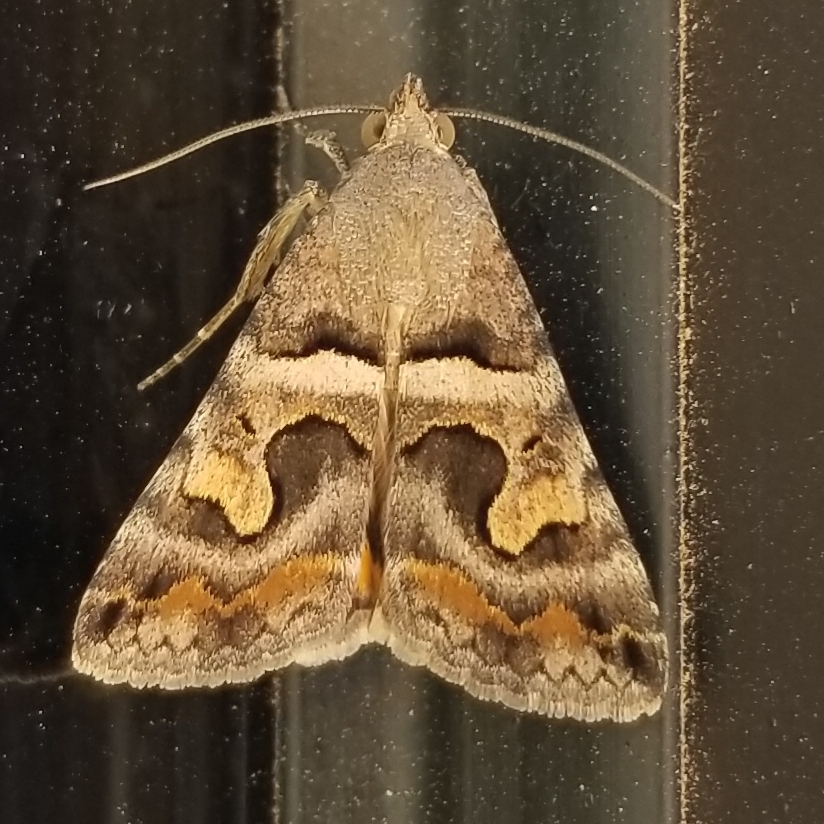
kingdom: Animalia
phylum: Arthropoda
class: Insecta
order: Lepidoptera
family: Erebidae
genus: Bulia
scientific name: Bulia deducta
